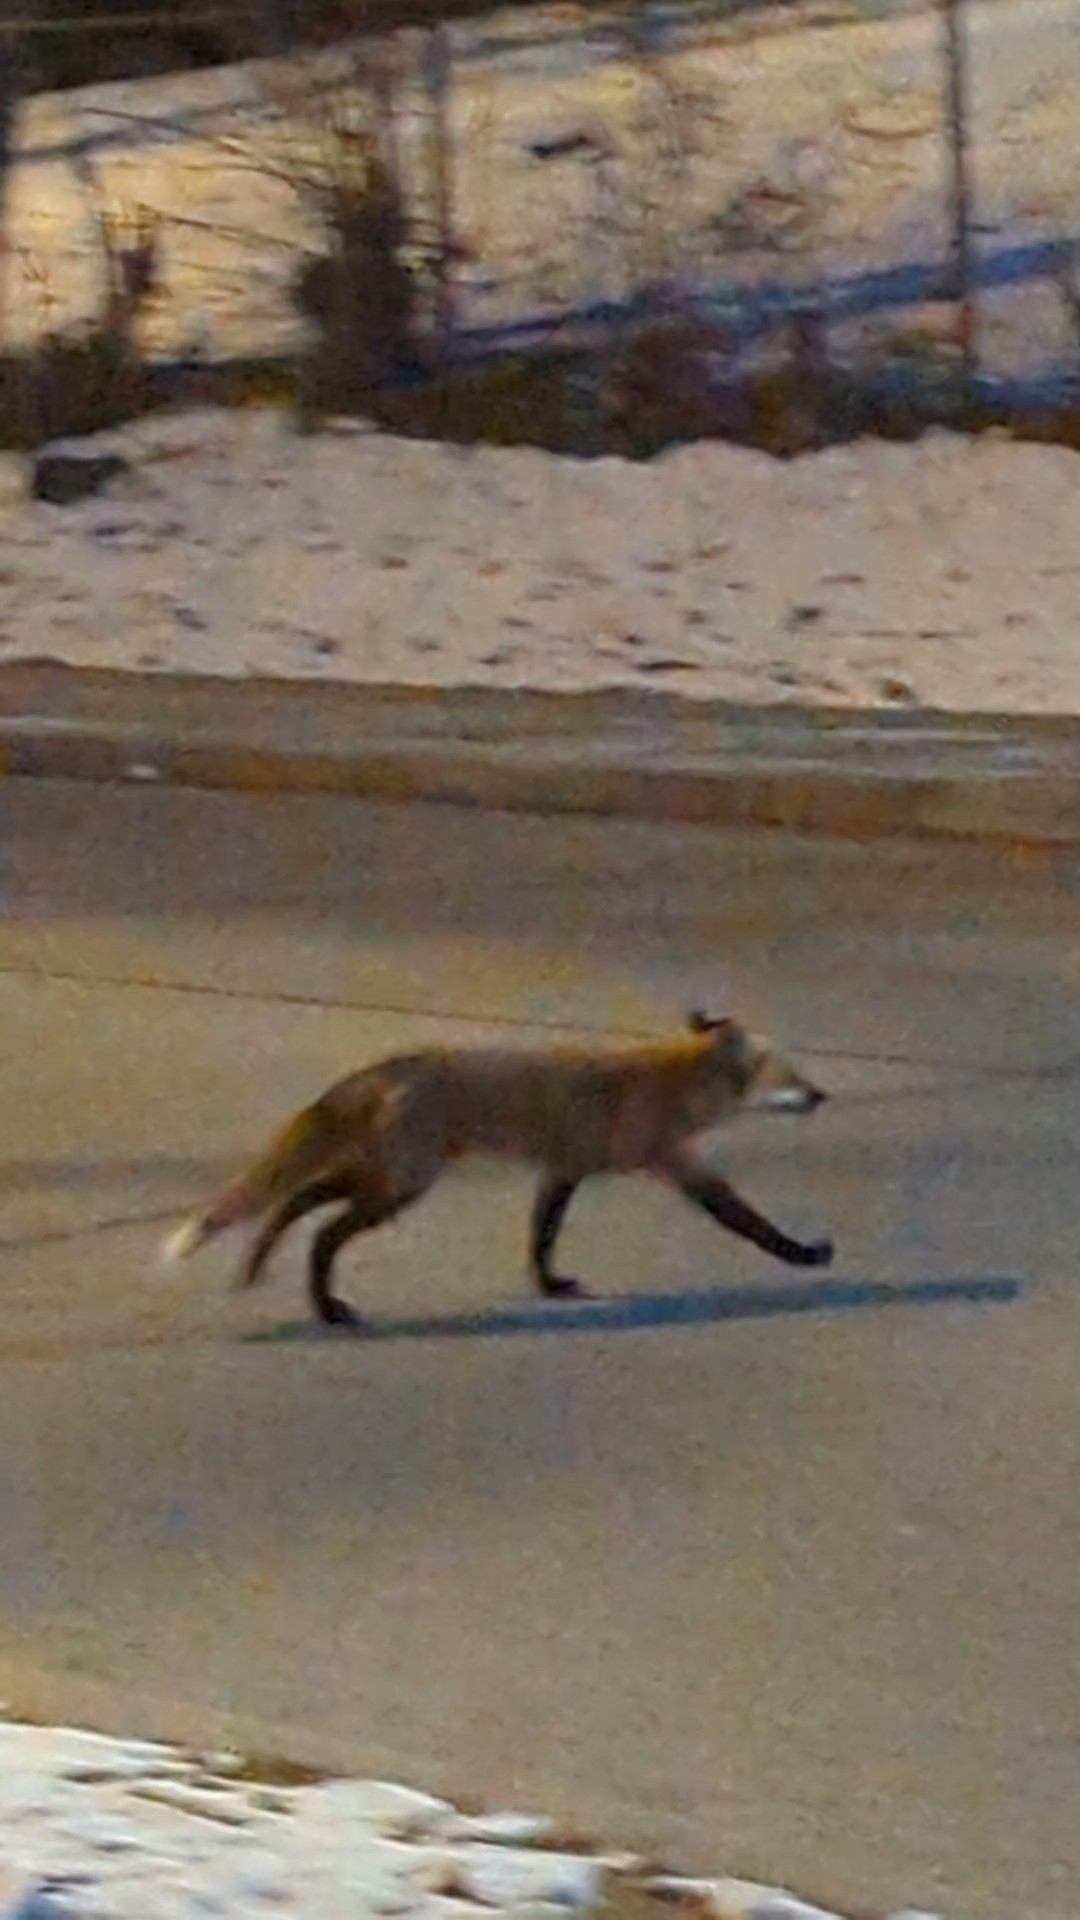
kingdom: Animalia
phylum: Chordata
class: Mammalia
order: Carnivora
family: Canidae
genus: Vulpes
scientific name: Vulpes vulpes
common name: Red fox
